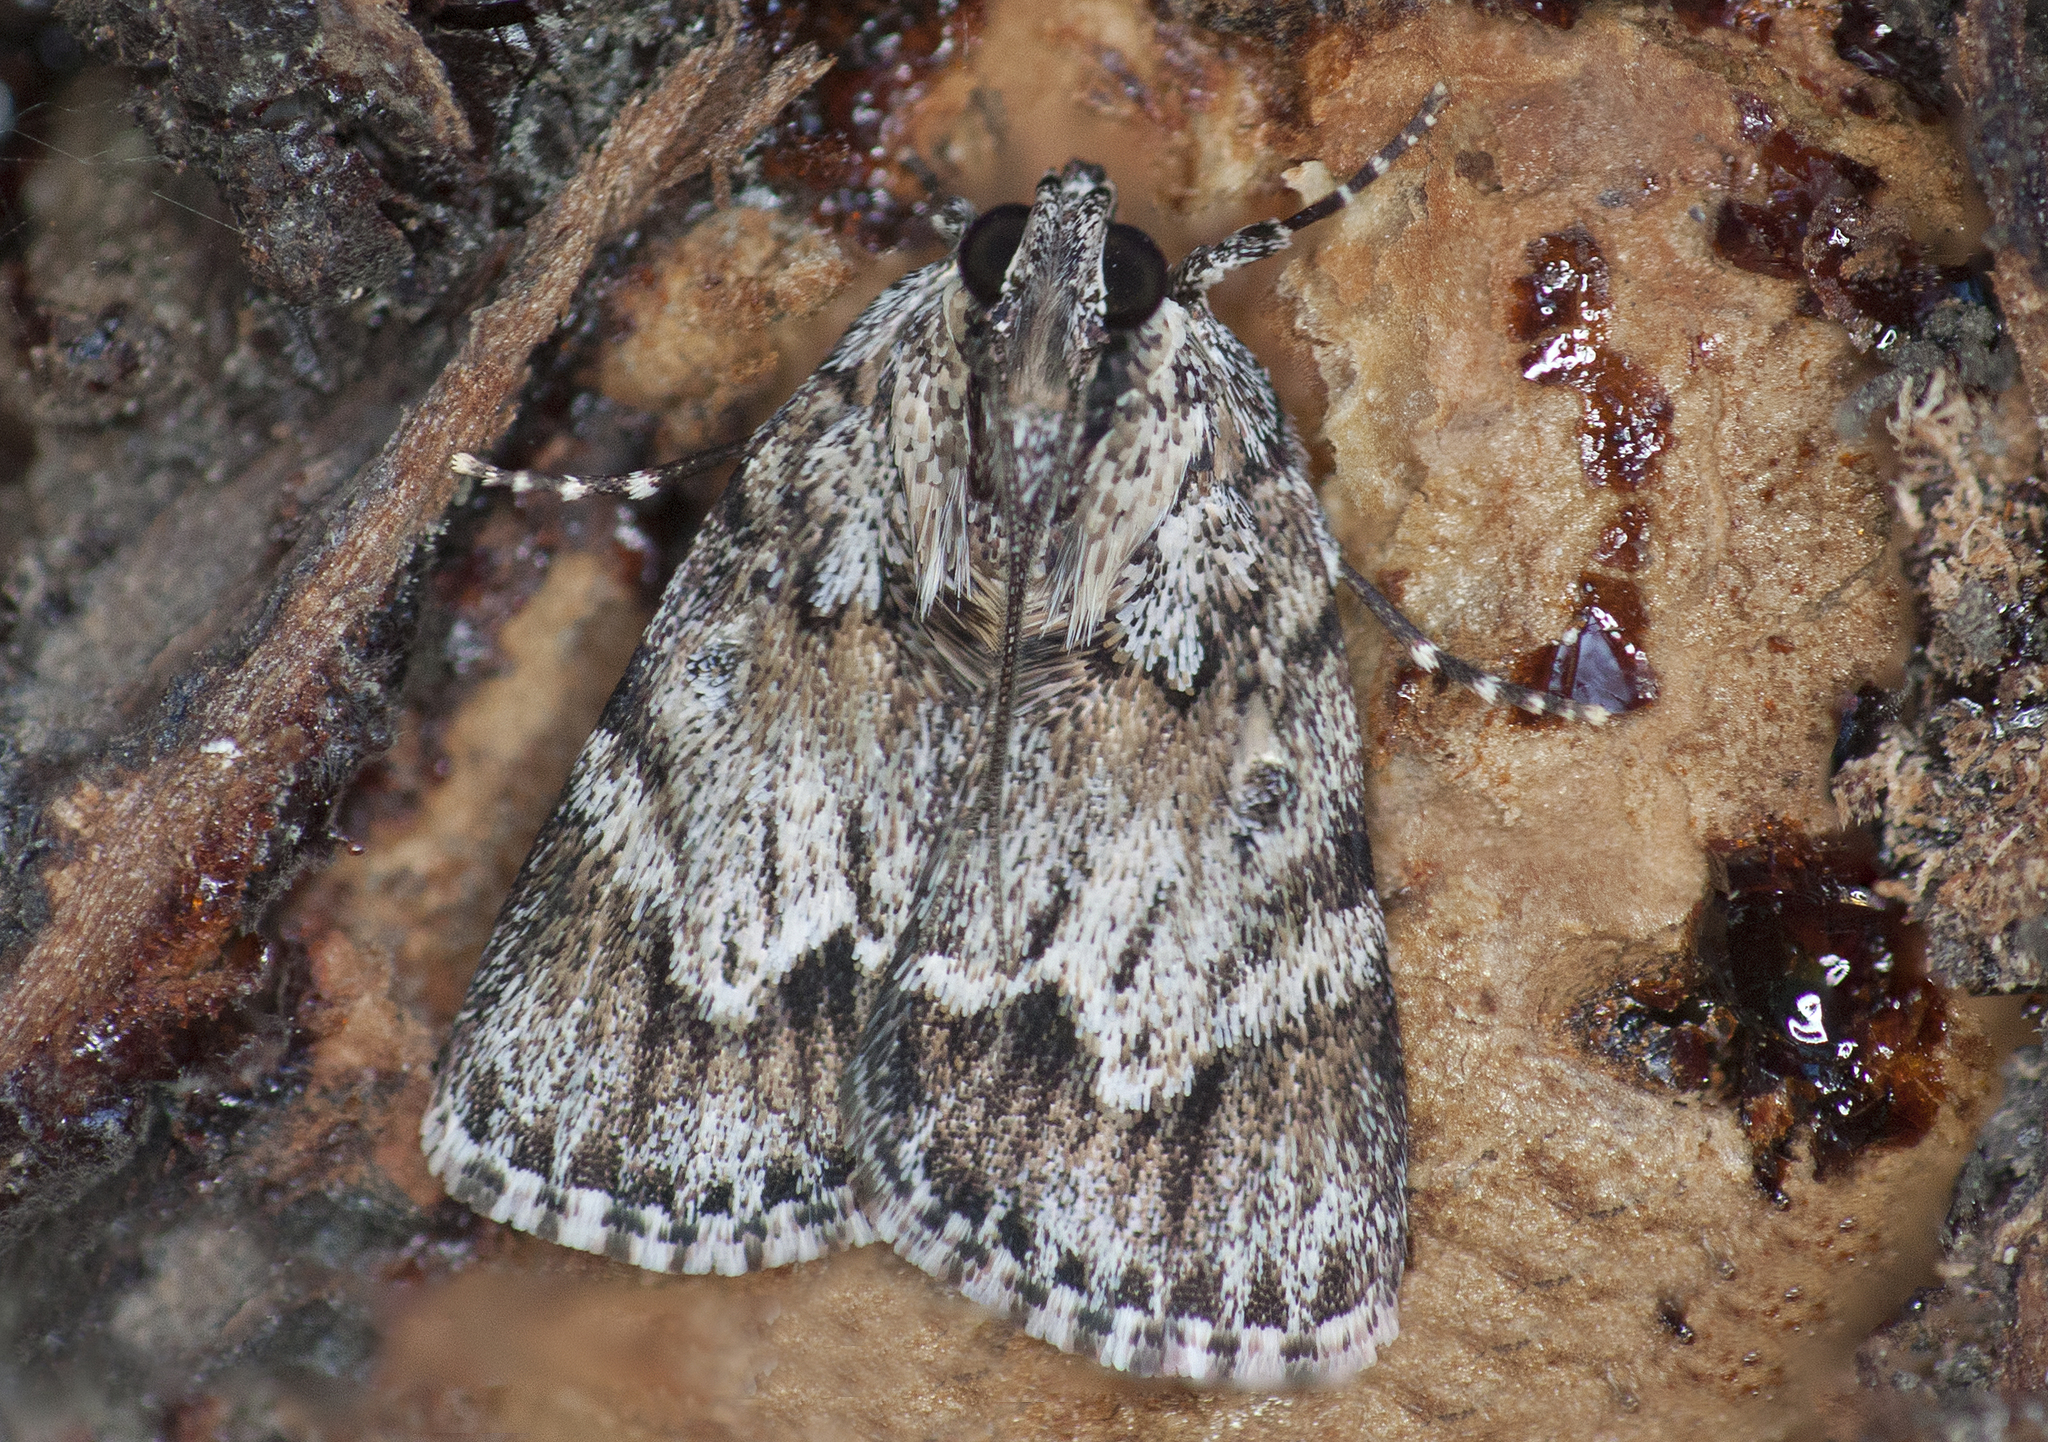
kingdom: Animalia
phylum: Arthropoda
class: Insecta
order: Lepidoptera
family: Pyralidae
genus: Spectrotrota
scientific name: Spectrotrota fimbrialis
